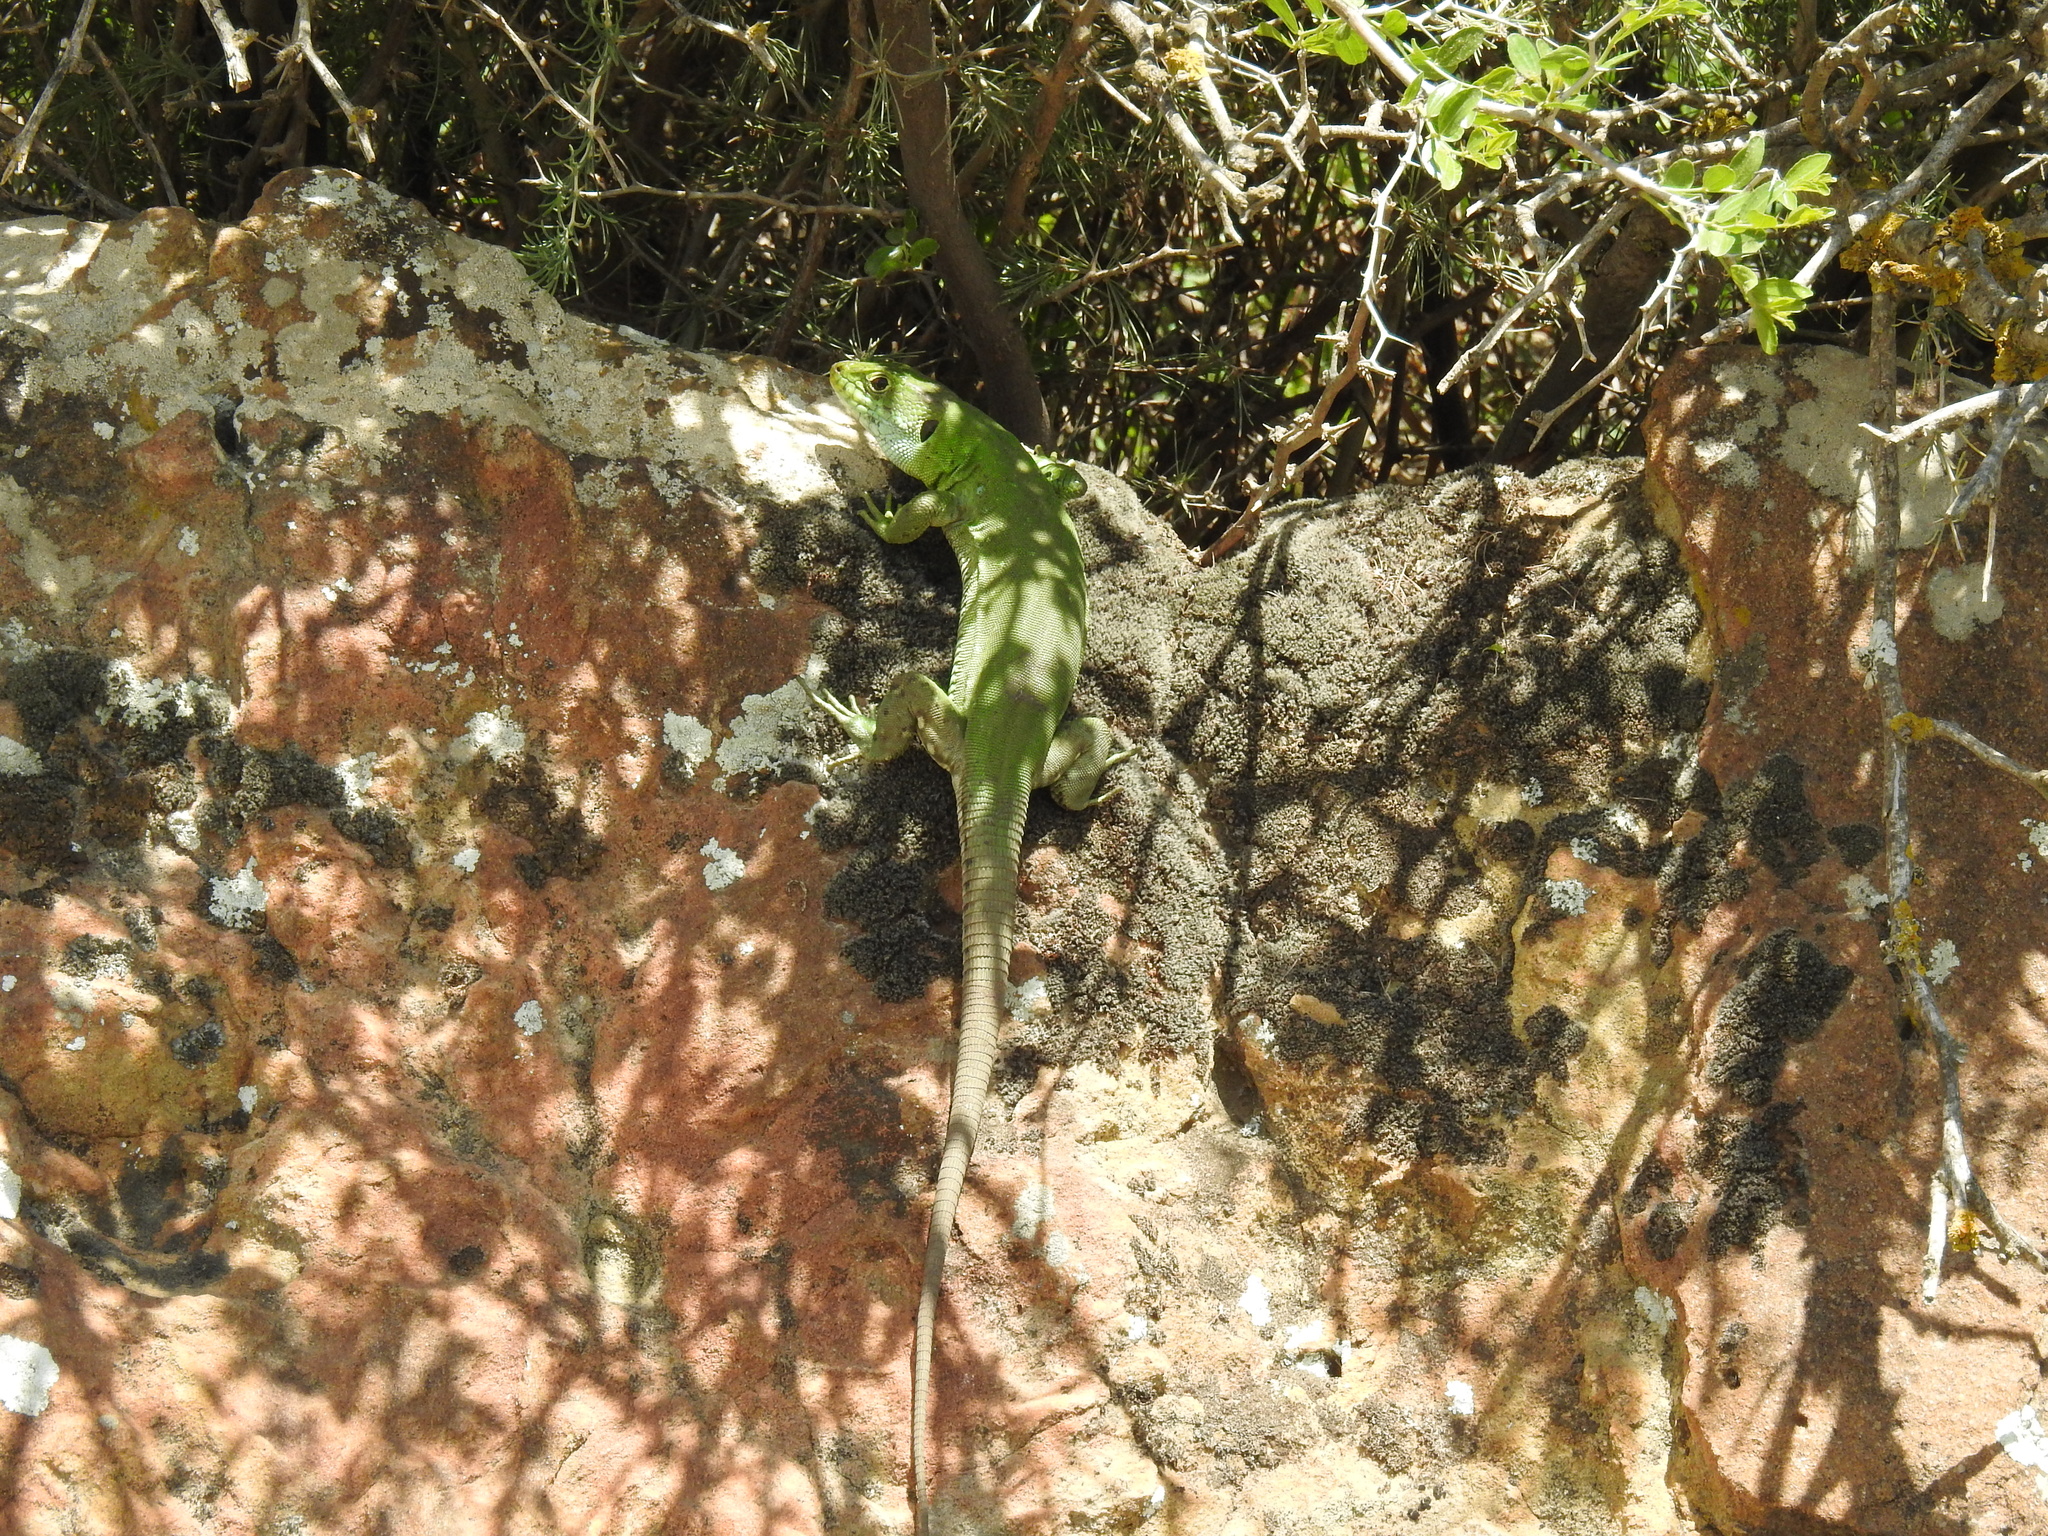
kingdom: Animalia
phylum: Chordata
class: Squamata
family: Lacertidae
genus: Timon
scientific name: Timon pater
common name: North african ocellated lizard
